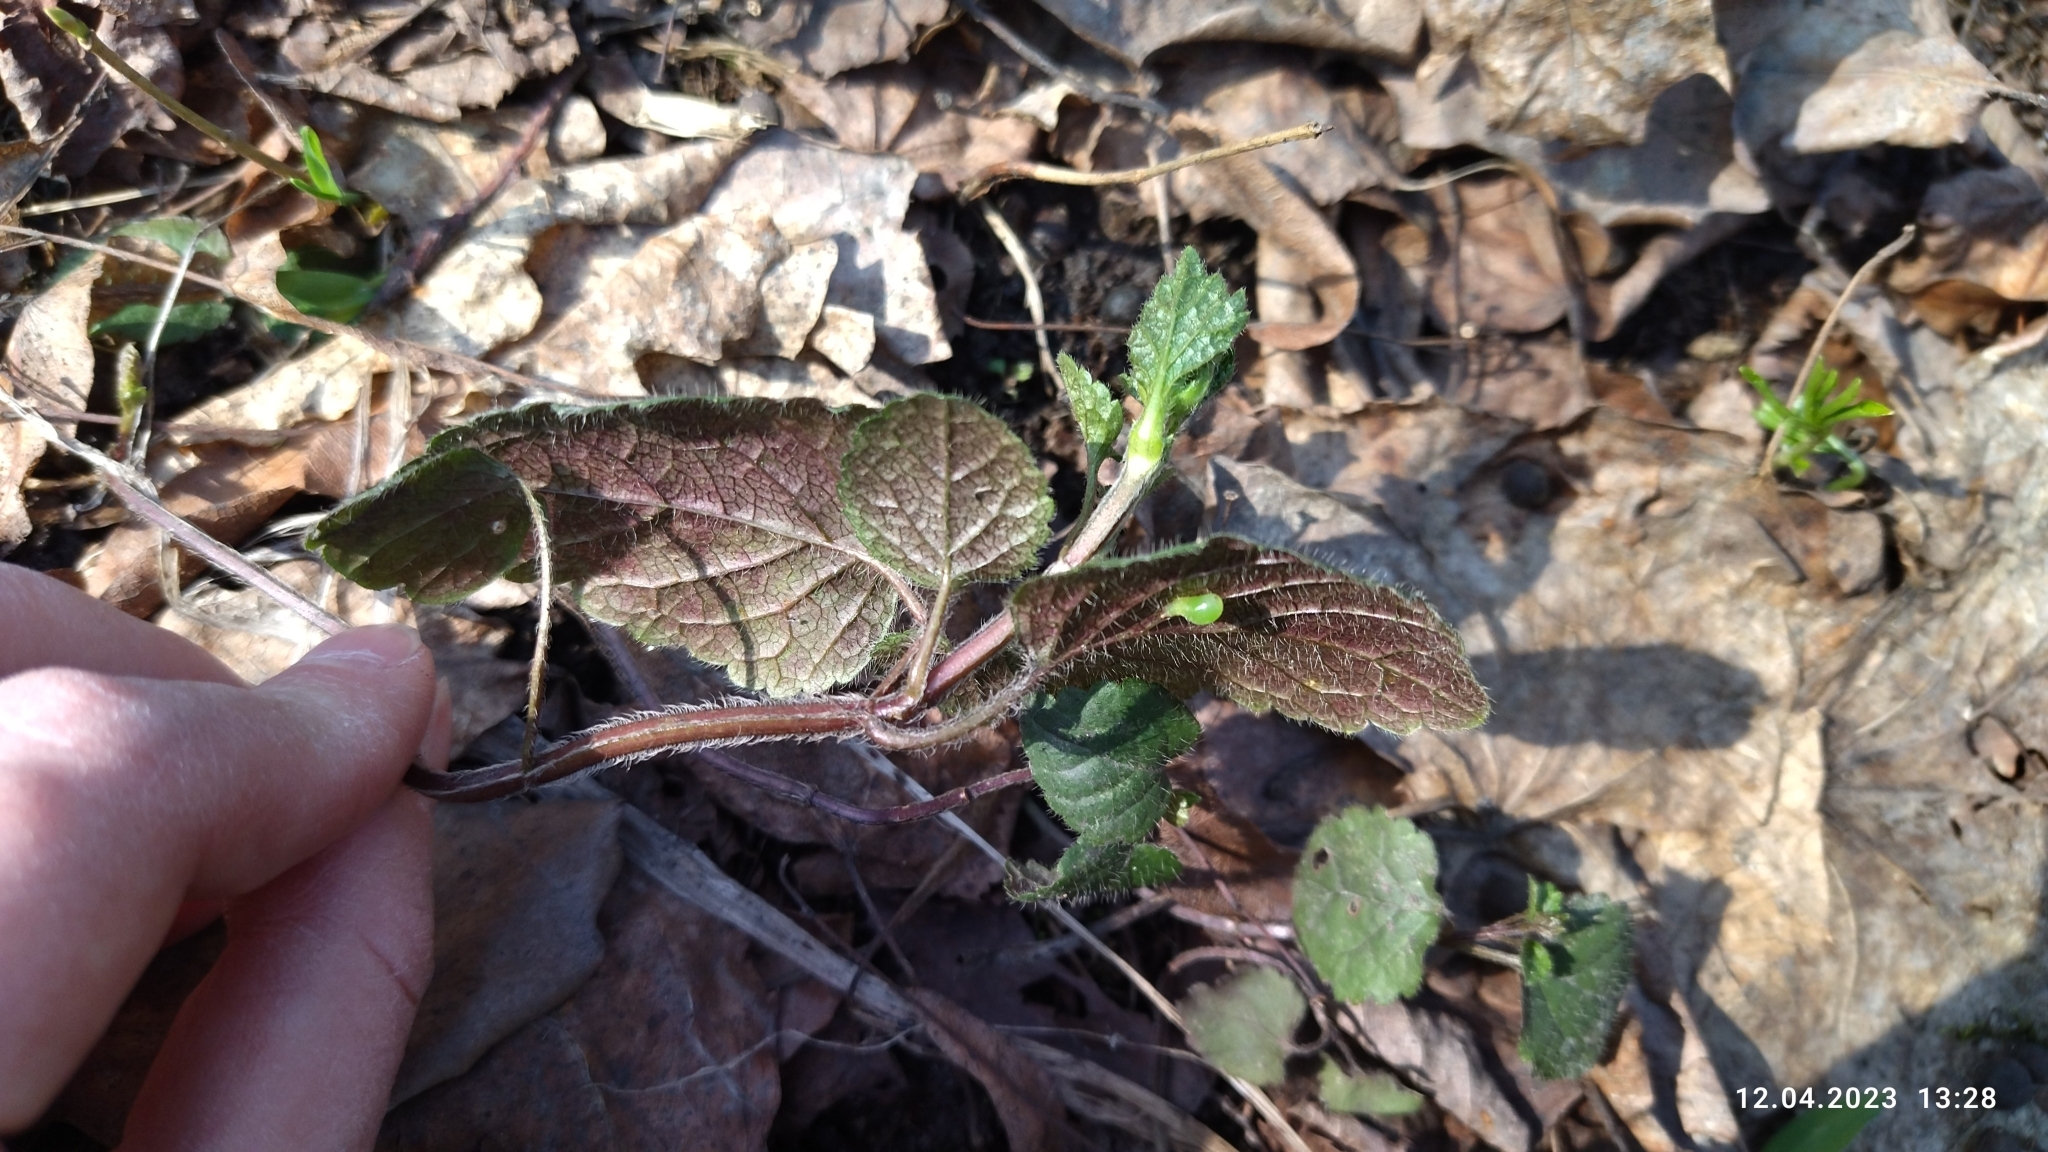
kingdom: Plantae
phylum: Tracheophyta
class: Magnoliopsida
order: Lamiales
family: Lamiaceae
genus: Lamium
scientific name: Lamium galeobdolon
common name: Yellow archangel
